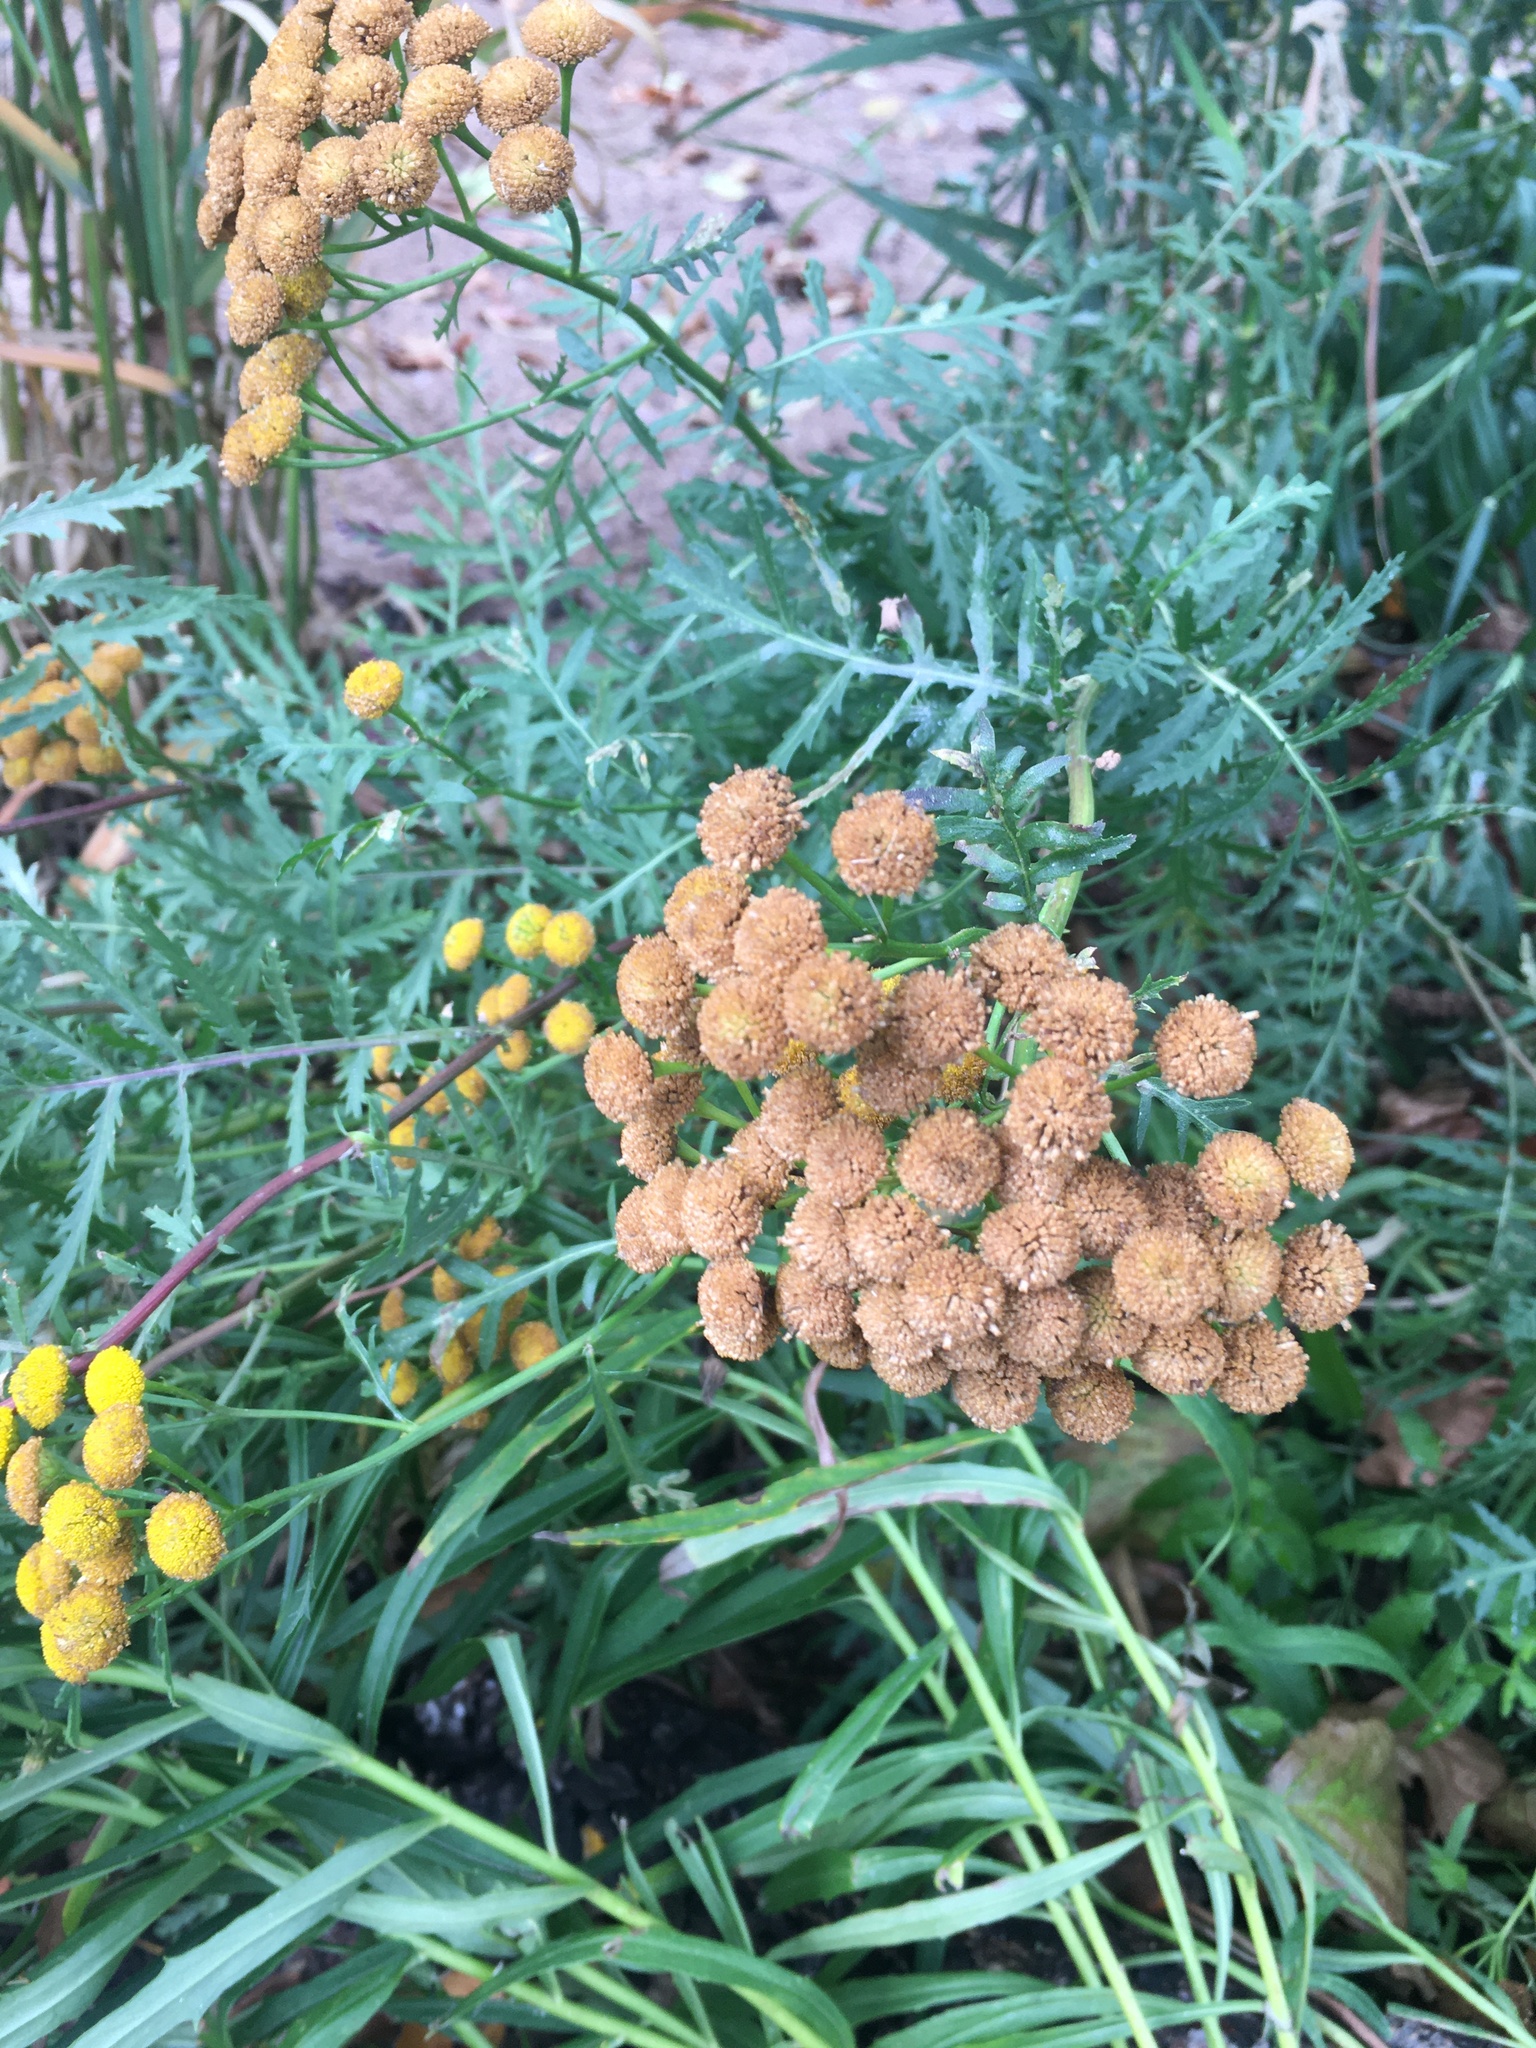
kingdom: Plantae
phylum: Tracheophyta
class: Magnoliopsida
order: Asterales
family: Asteraceae
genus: Tanacetum
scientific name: Tanacetum vulgare
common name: Common tansy
